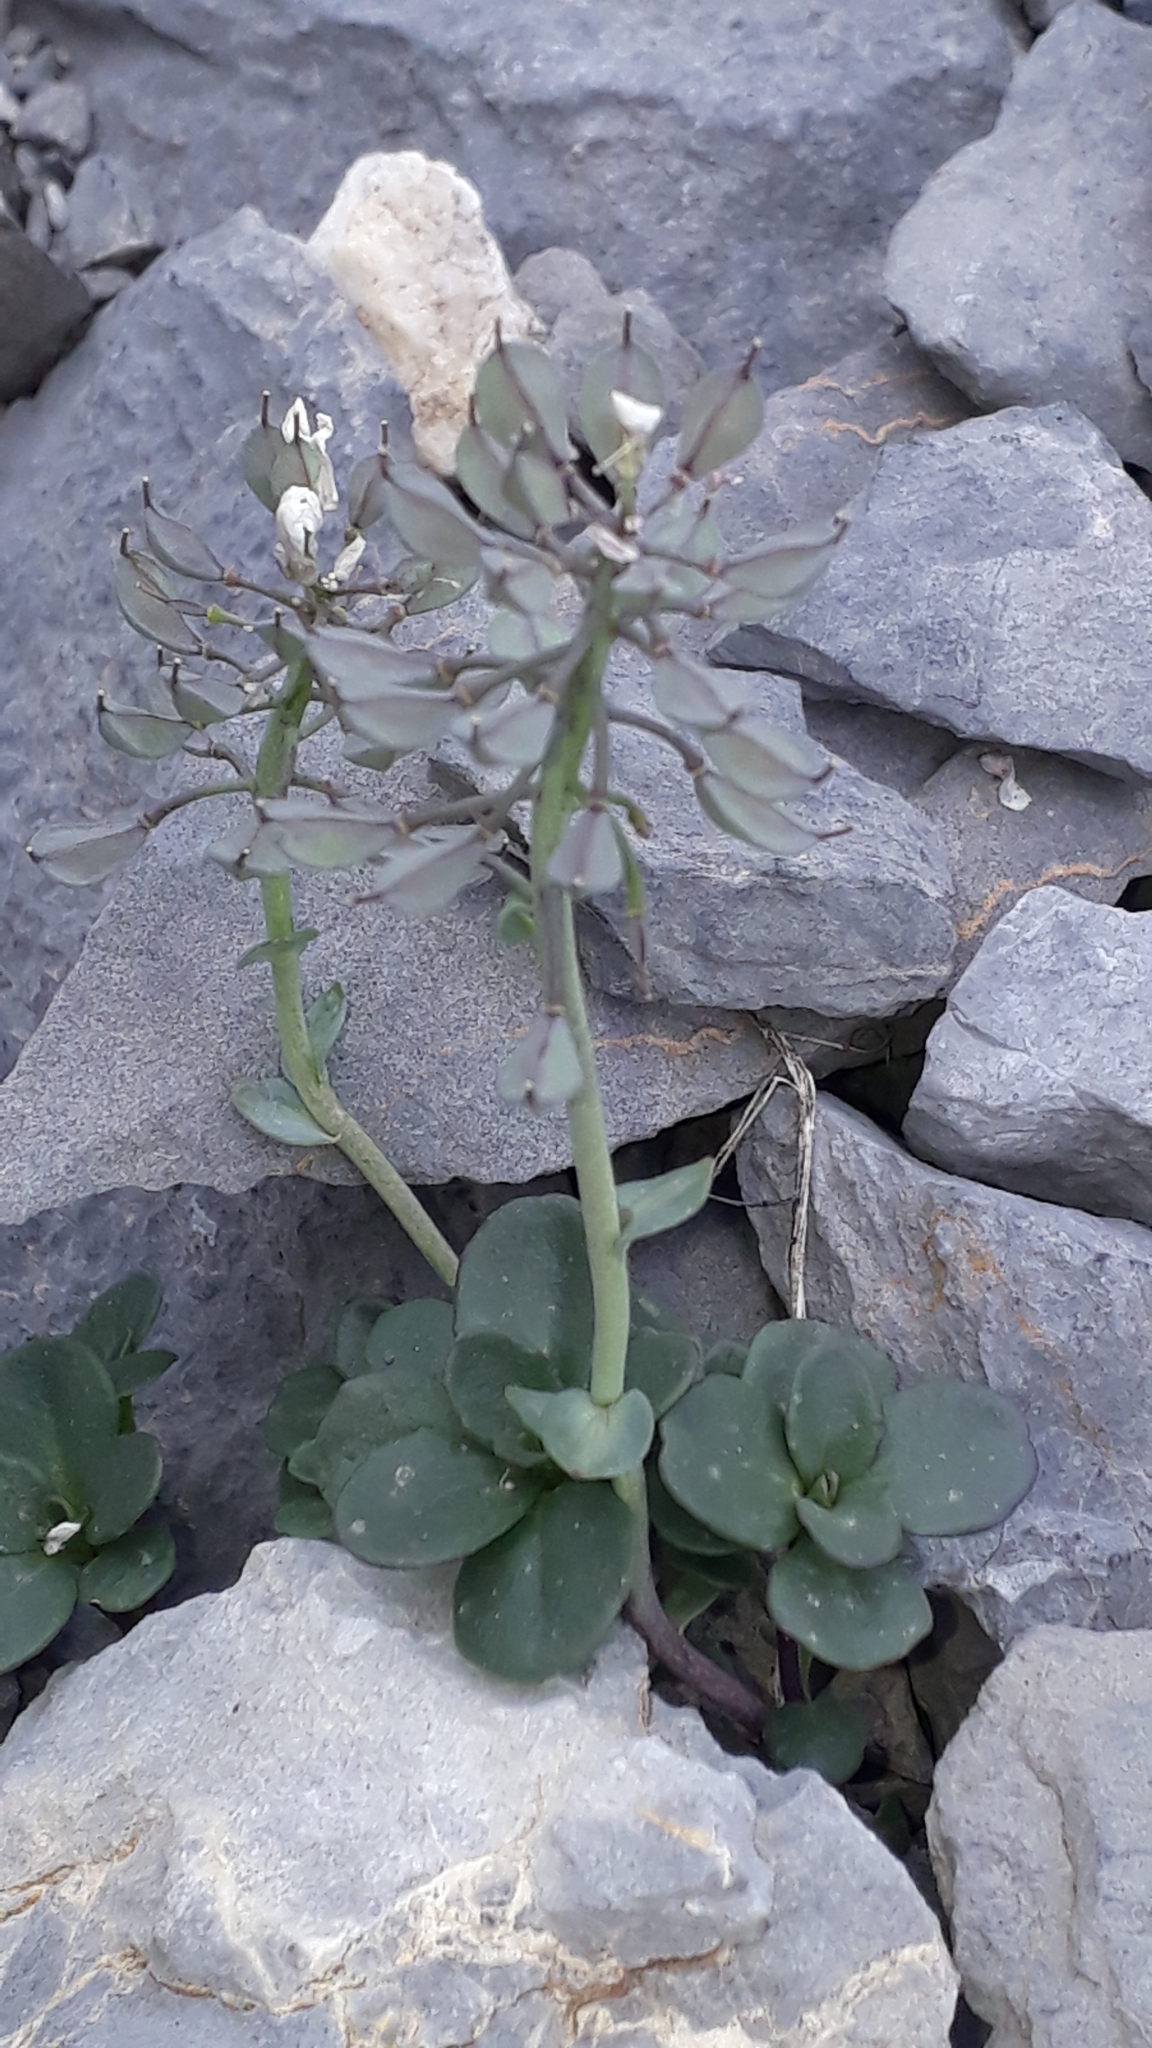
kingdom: Plantae
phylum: Tracheophyta
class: Magnoliopsida
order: Brassicales
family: Brassicaceae
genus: Noccaea
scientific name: Noccaea rotundifolia
